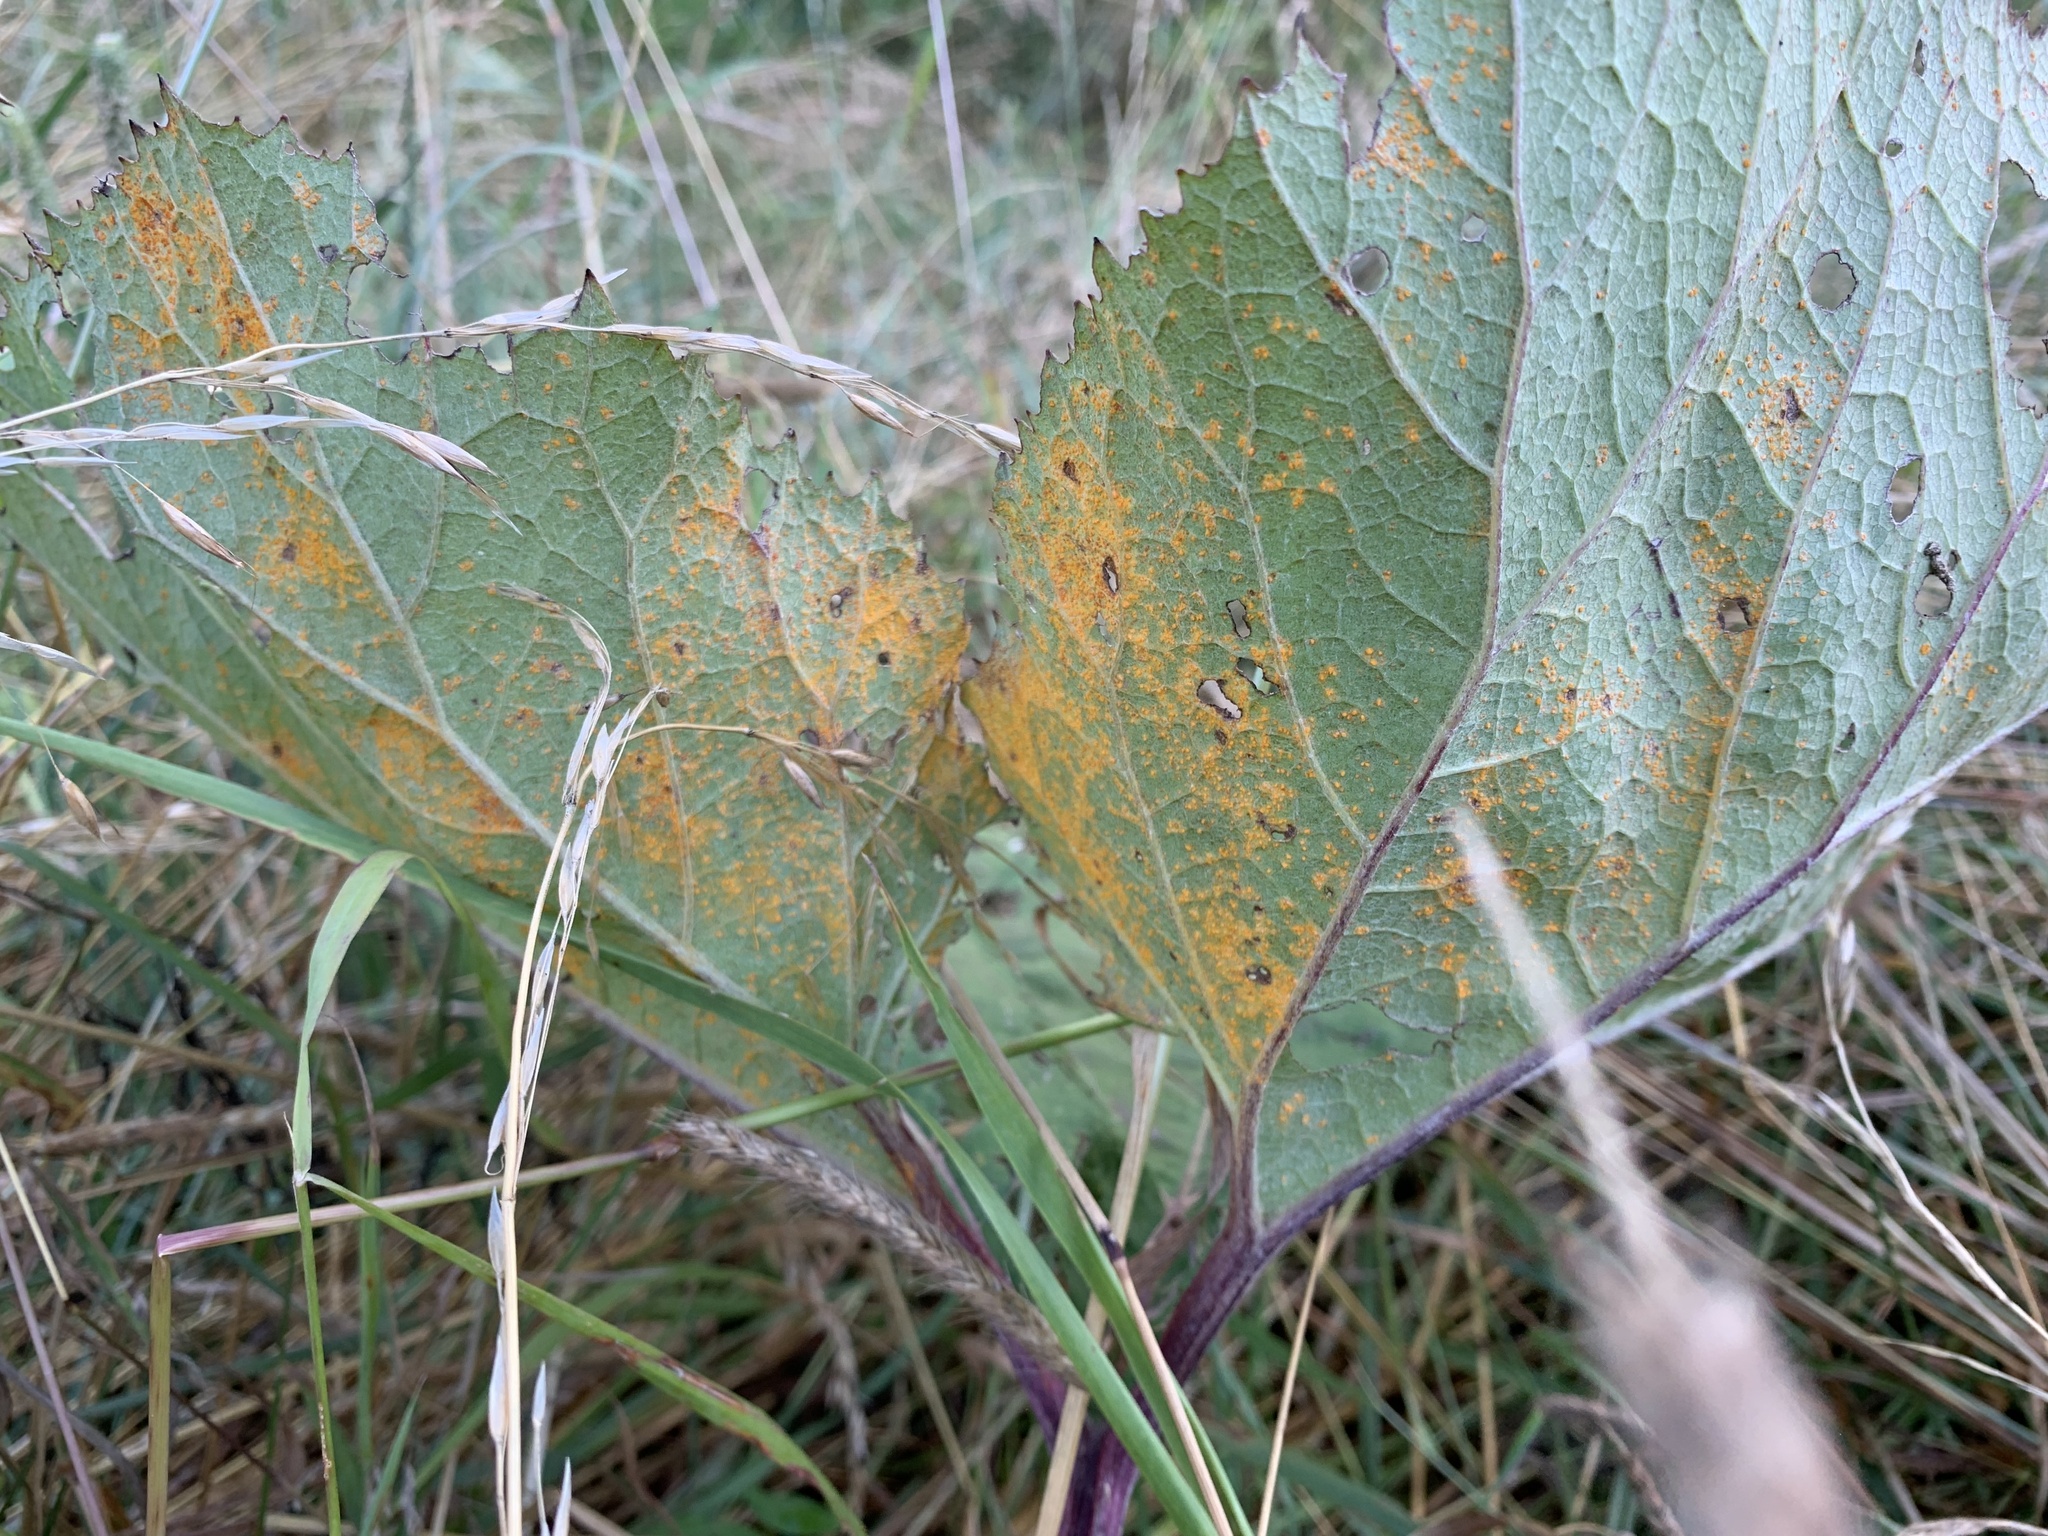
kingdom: Fungi
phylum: Basidiomycota
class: Pucciniomycetes
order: Pucciniales
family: Coleosporiaceae
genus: Coleosporium
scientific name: Coleosporium tussilaginis
